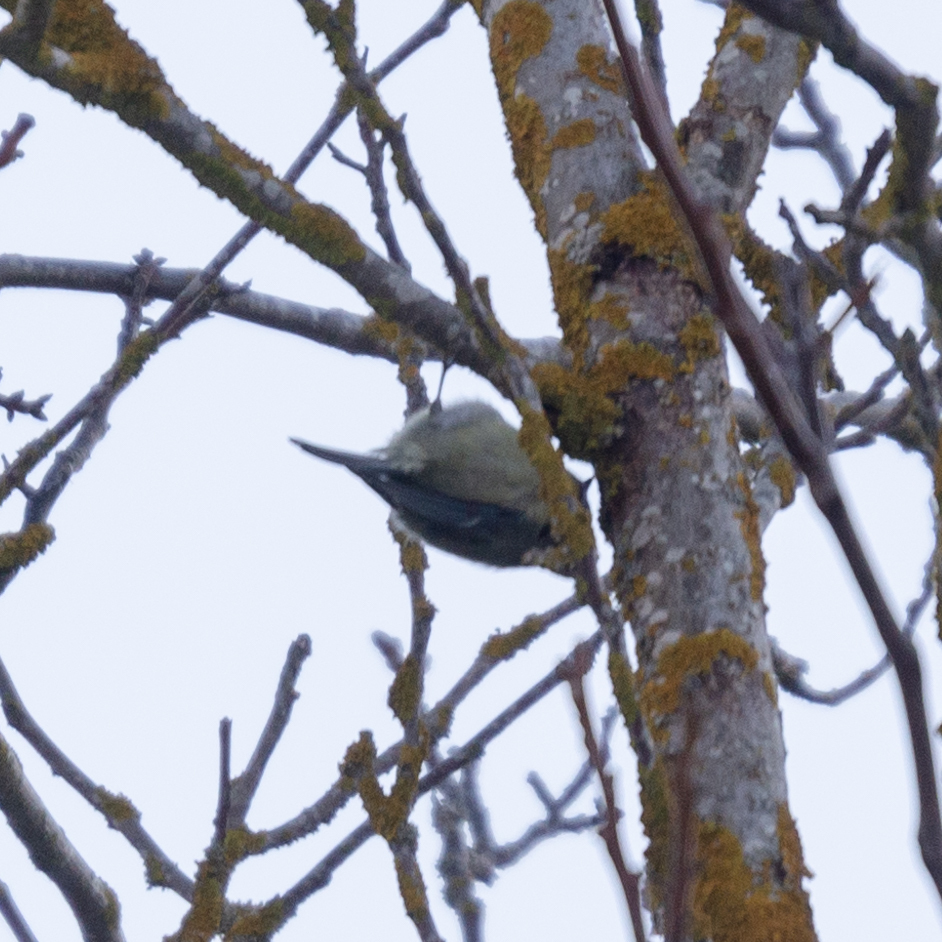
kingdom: Animalia
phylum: Chordata
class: Aves
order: Passeriformes
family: Paridae
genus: Cyanistes
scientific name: Cyanistes caeruleus
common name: Eurasian blue tit
